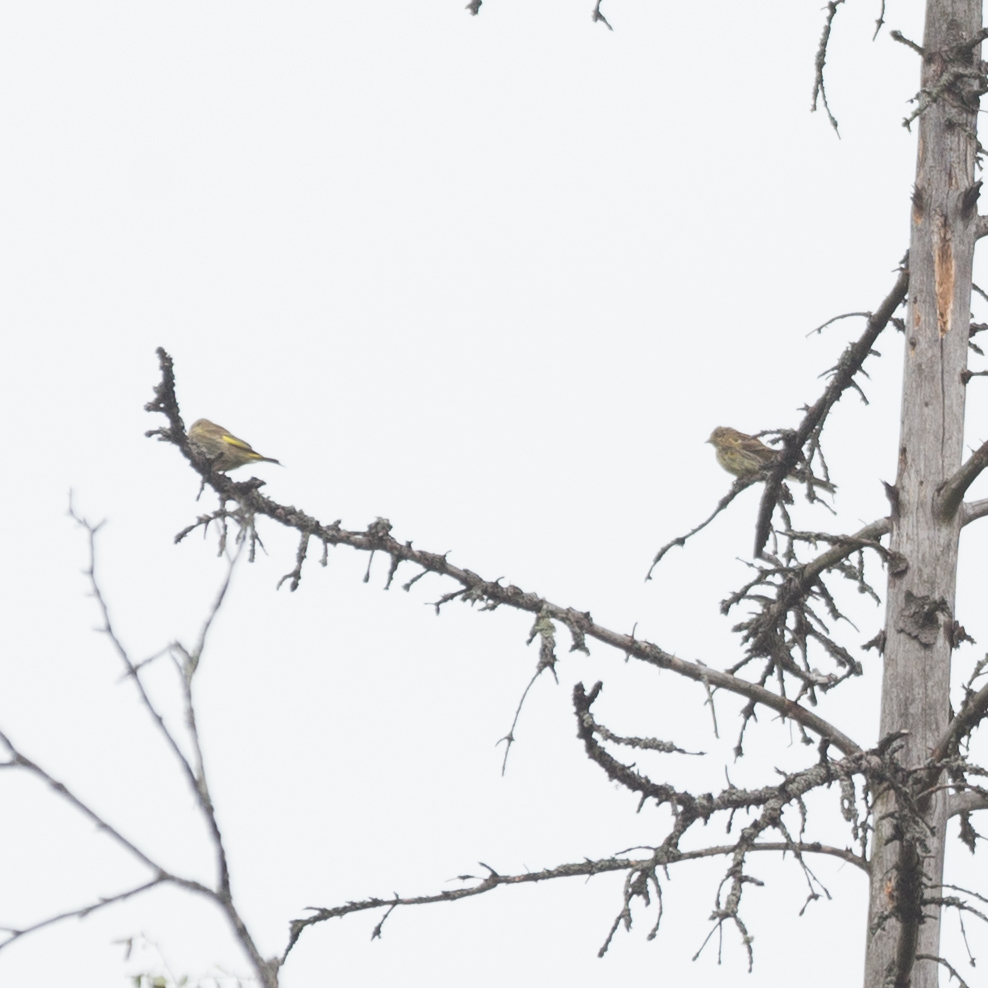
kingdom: Plantae
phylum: Tracheophyta
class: Liliopsida
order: Poales
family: Poaceae
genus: Chloris
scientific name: Chloris chloris
